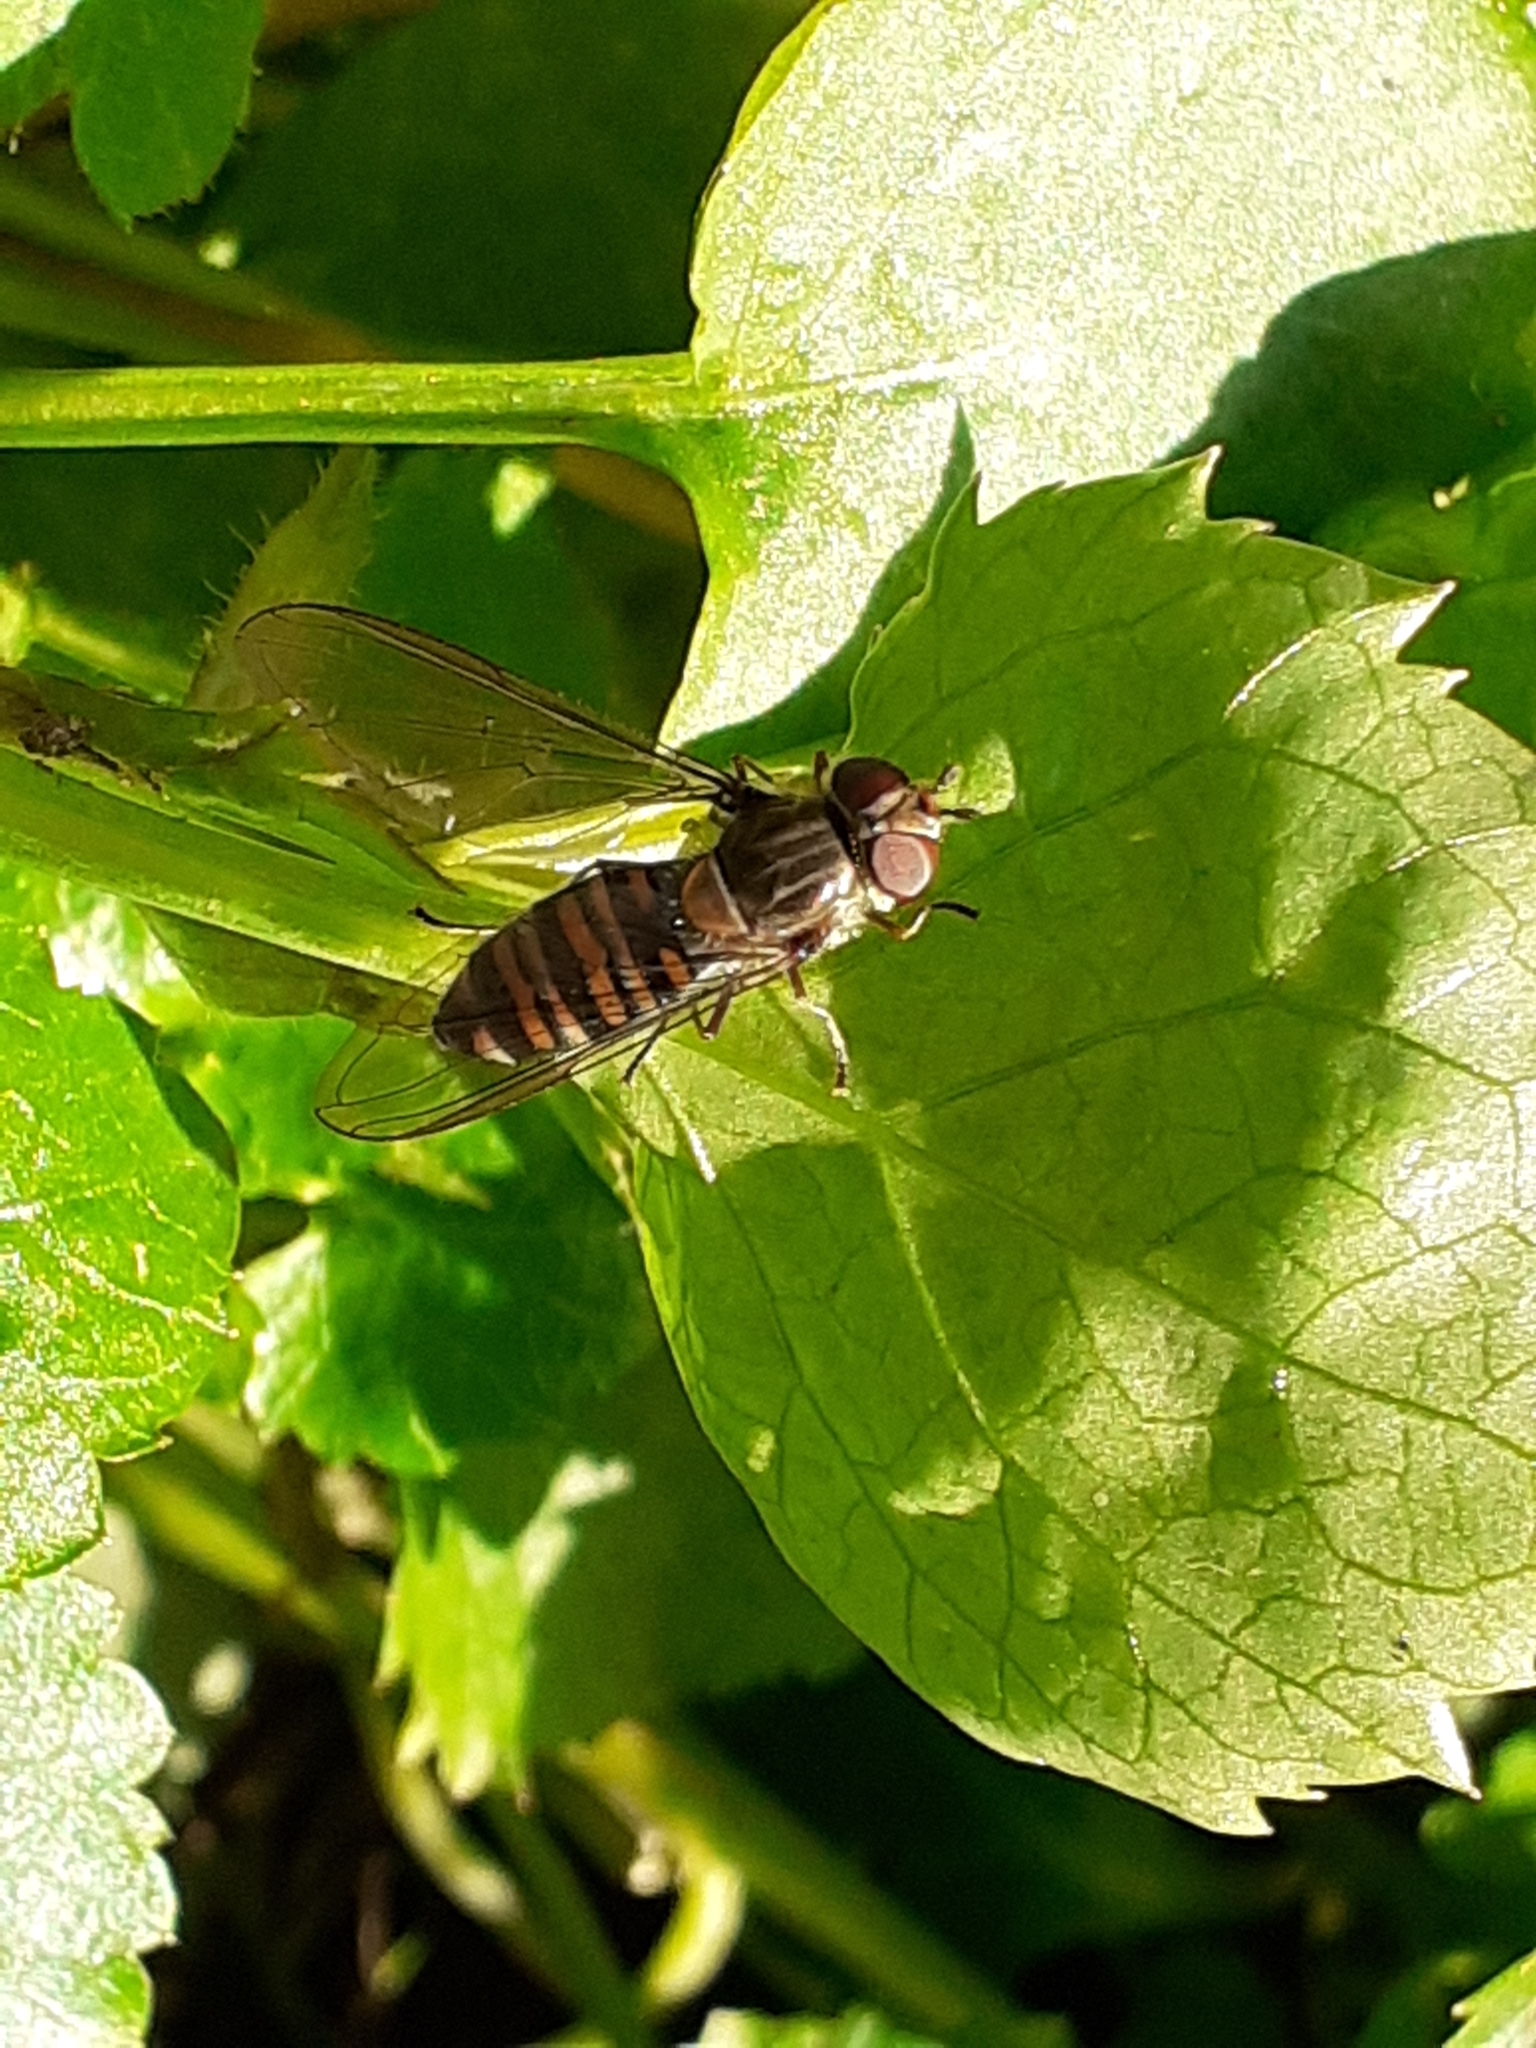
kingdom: Animalia
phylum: Arthropoda
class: Insecta
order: Diptera
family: Syrphidae
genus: Episyrphus
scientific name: Episyrphus balteatus
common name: Marmalade hoverfly
